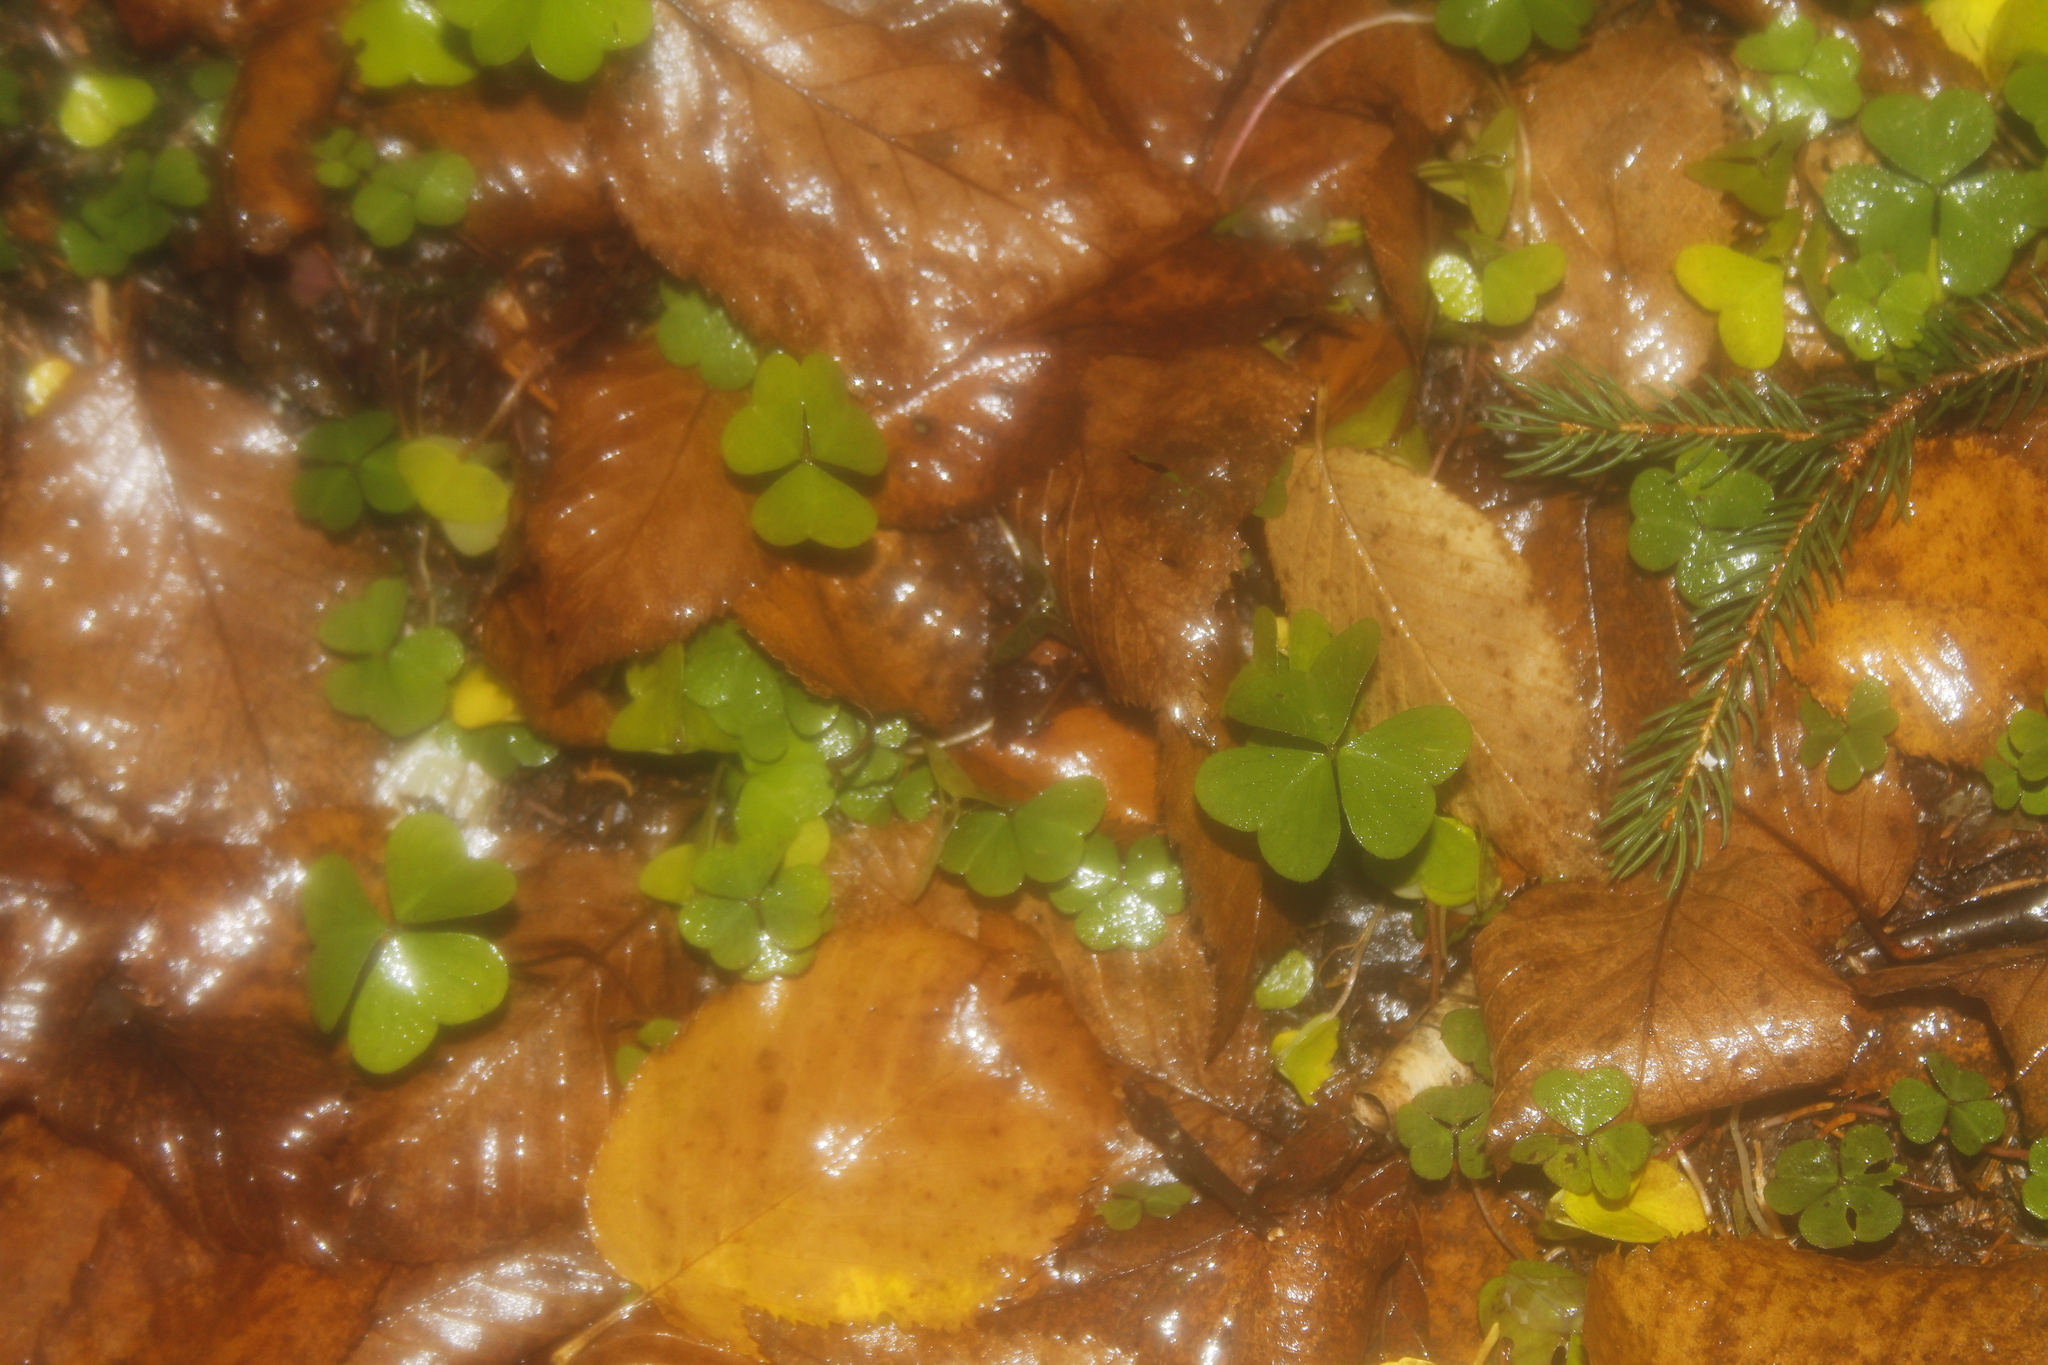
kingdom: Plantae
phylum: Tracheophyta
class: Magnoliopsida
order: Oxalidales
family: Oxalidaceae
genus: Oxalis
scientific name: Oxalis montana
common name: American wood-sorrel
